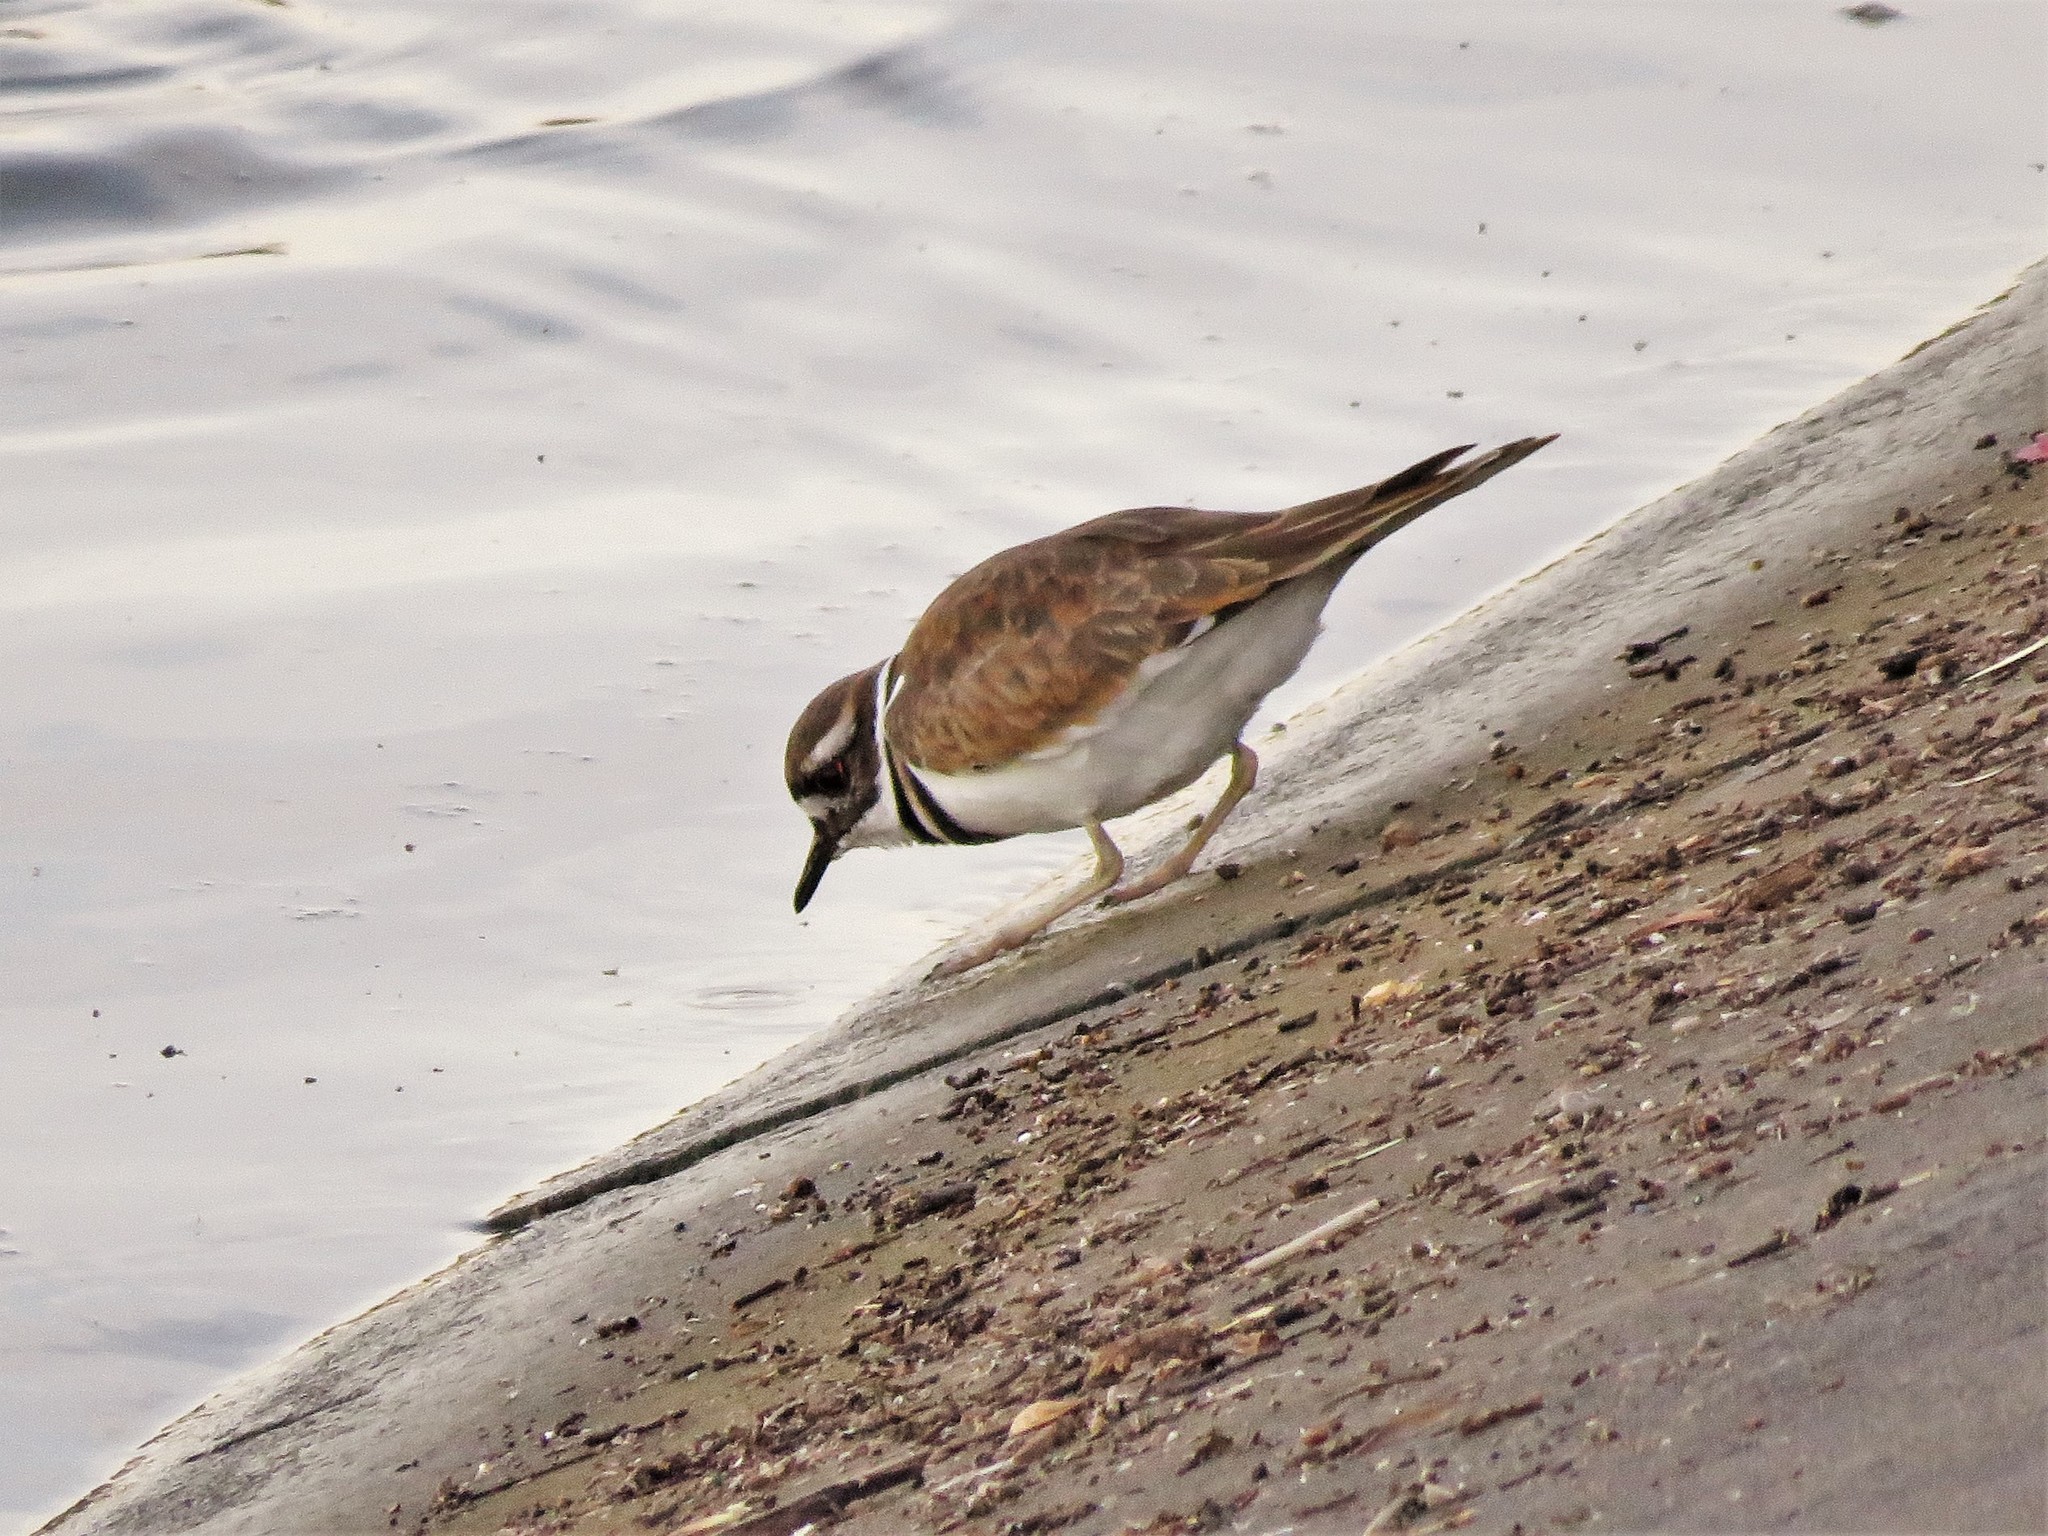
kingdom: Animalia
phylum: Chordata
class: Aves
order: Charadriiformes
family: Charadriidae
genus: Charadrius
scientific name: Charadrius vociferus
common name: Killdeer
